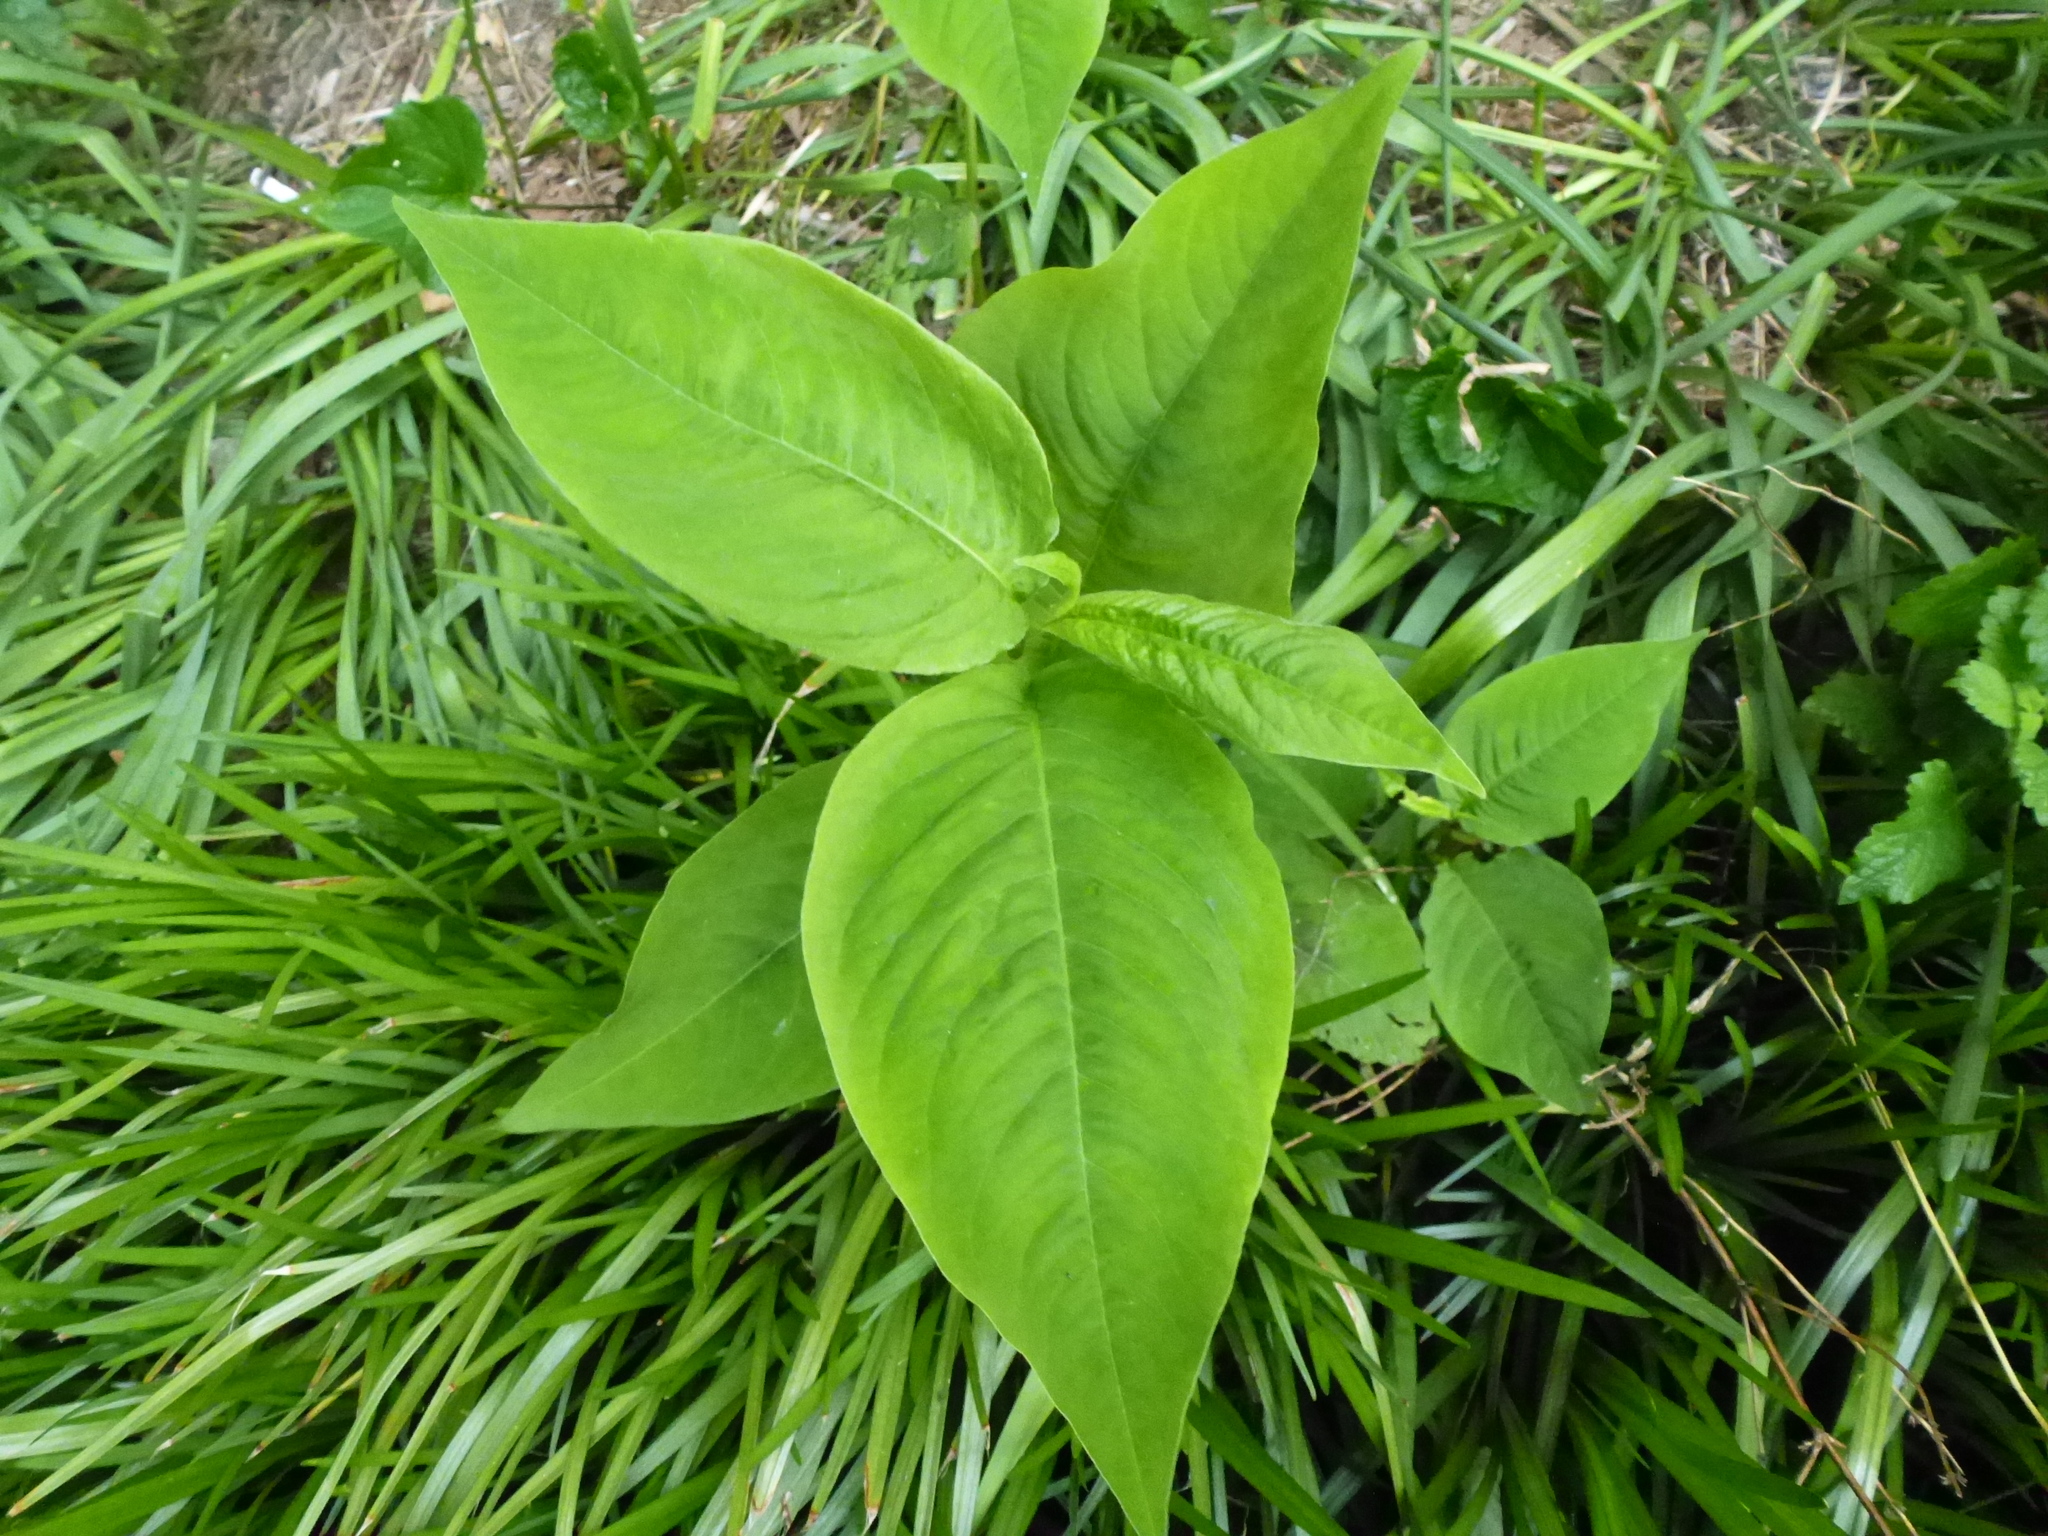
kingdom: Plantae
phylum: Tracheophyta
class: Magnoliopsida
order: Caryophyllales
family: Polygonaceae
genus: Persicaria
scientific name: Persicaria virginiana
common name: Jumpseed
